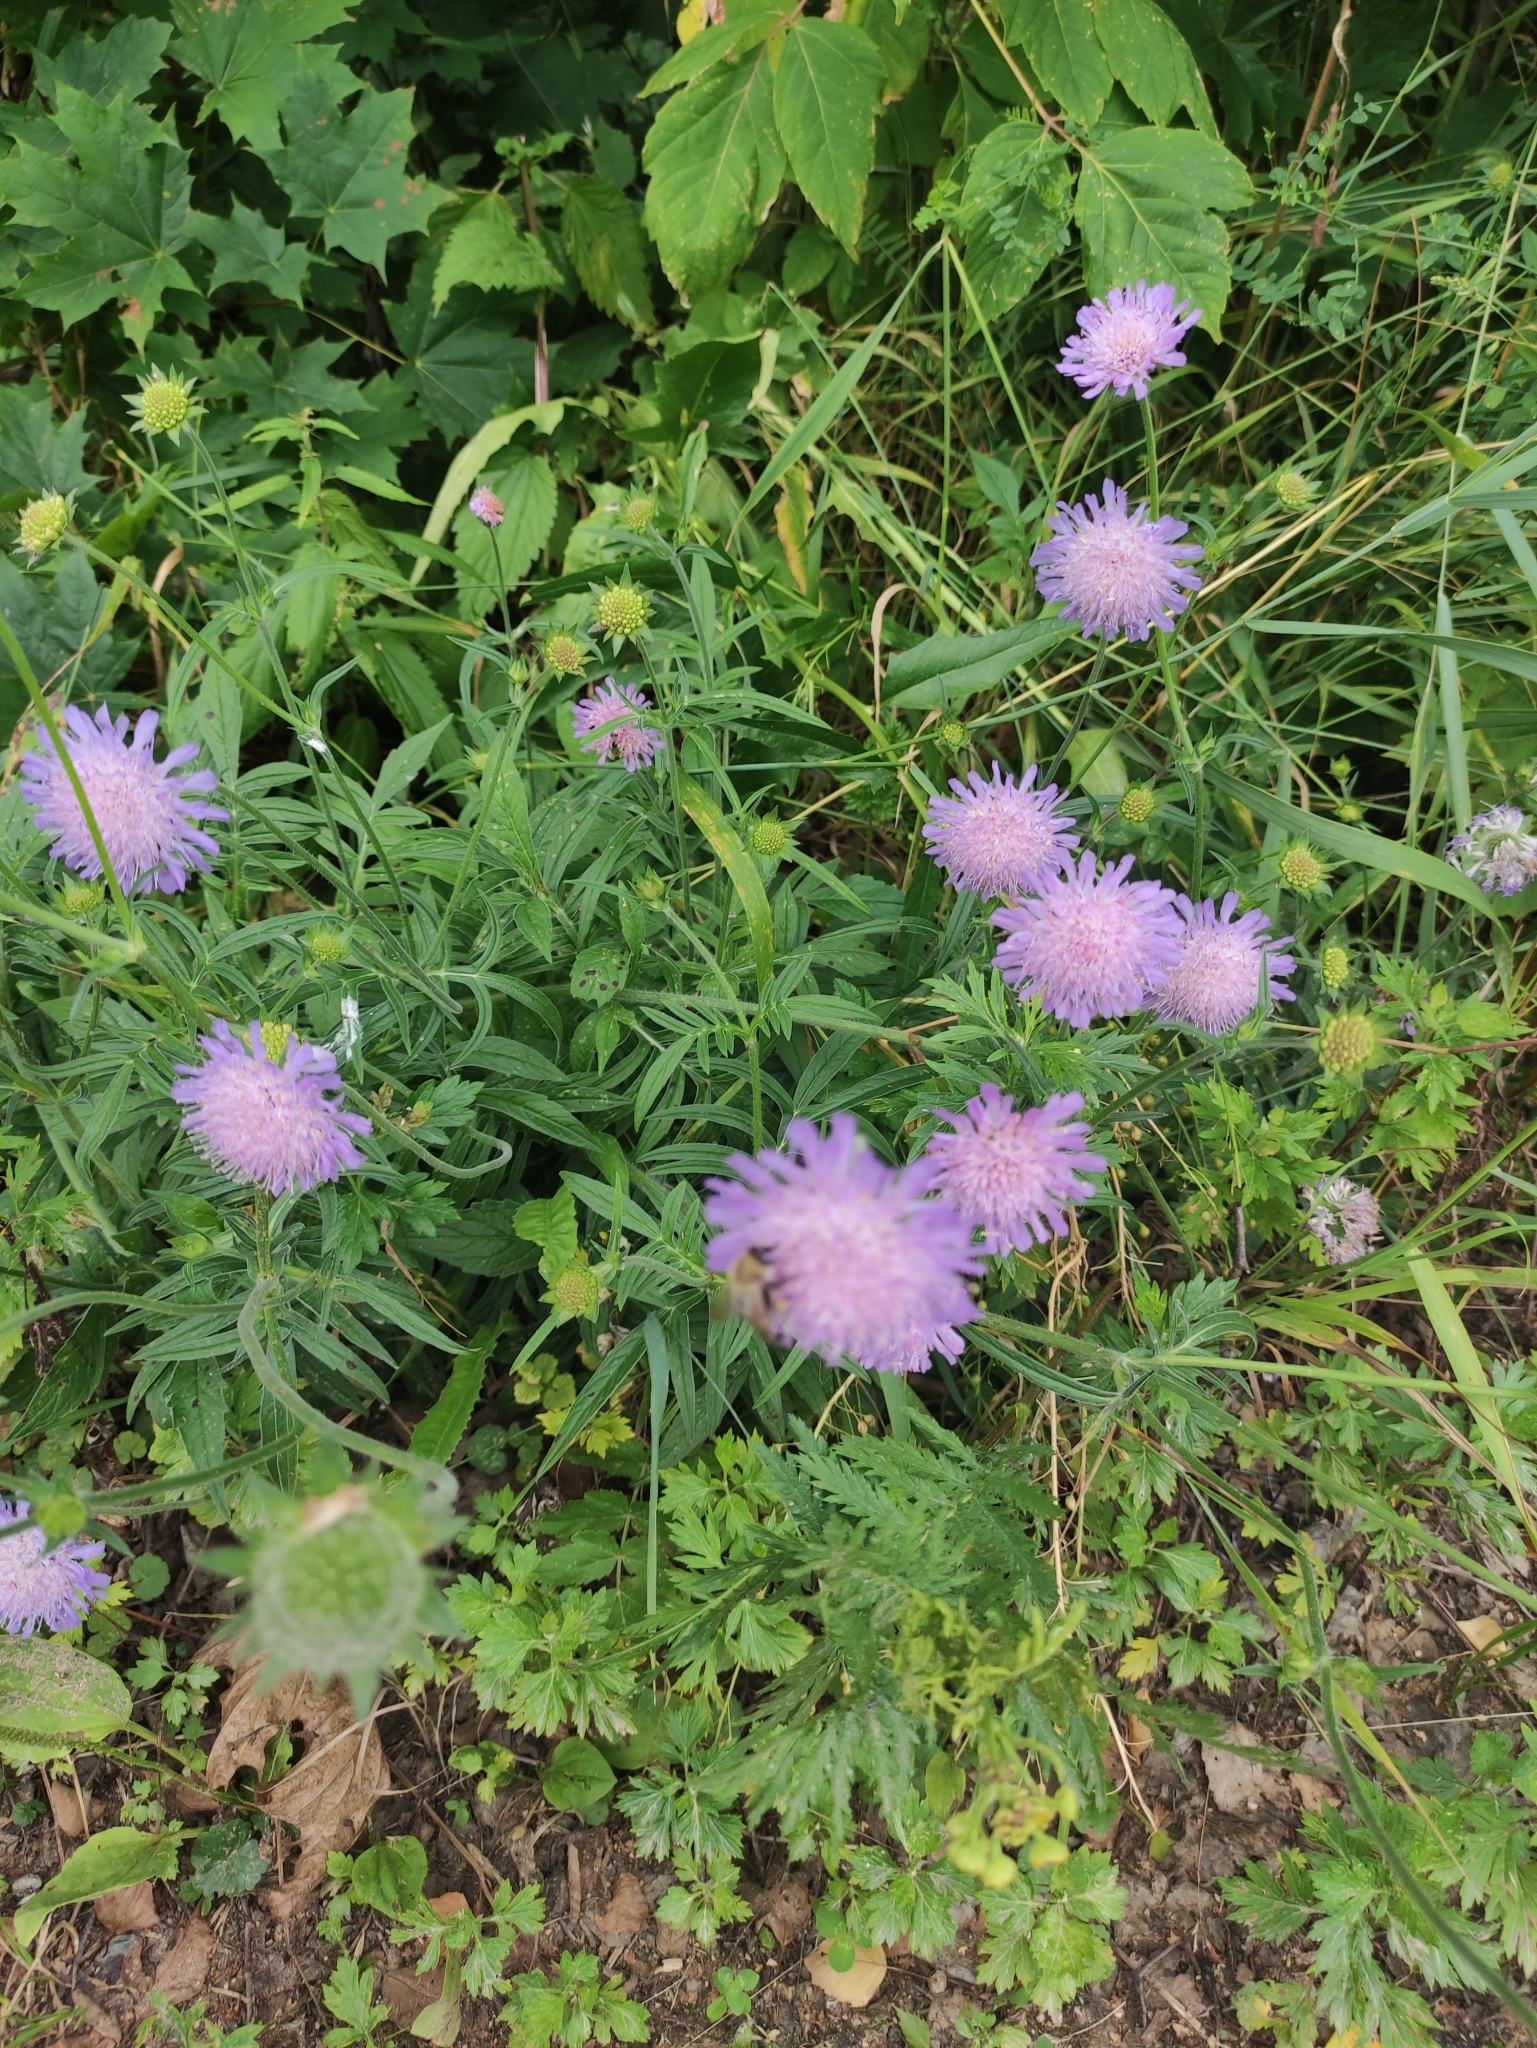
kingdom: Plantae
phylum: Tracheophyta
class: Magnoliopsida
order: Dipsacales
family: Caprifoliaceae
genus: Knautia
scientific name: Knautia arvensis
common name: Field scabiosa
